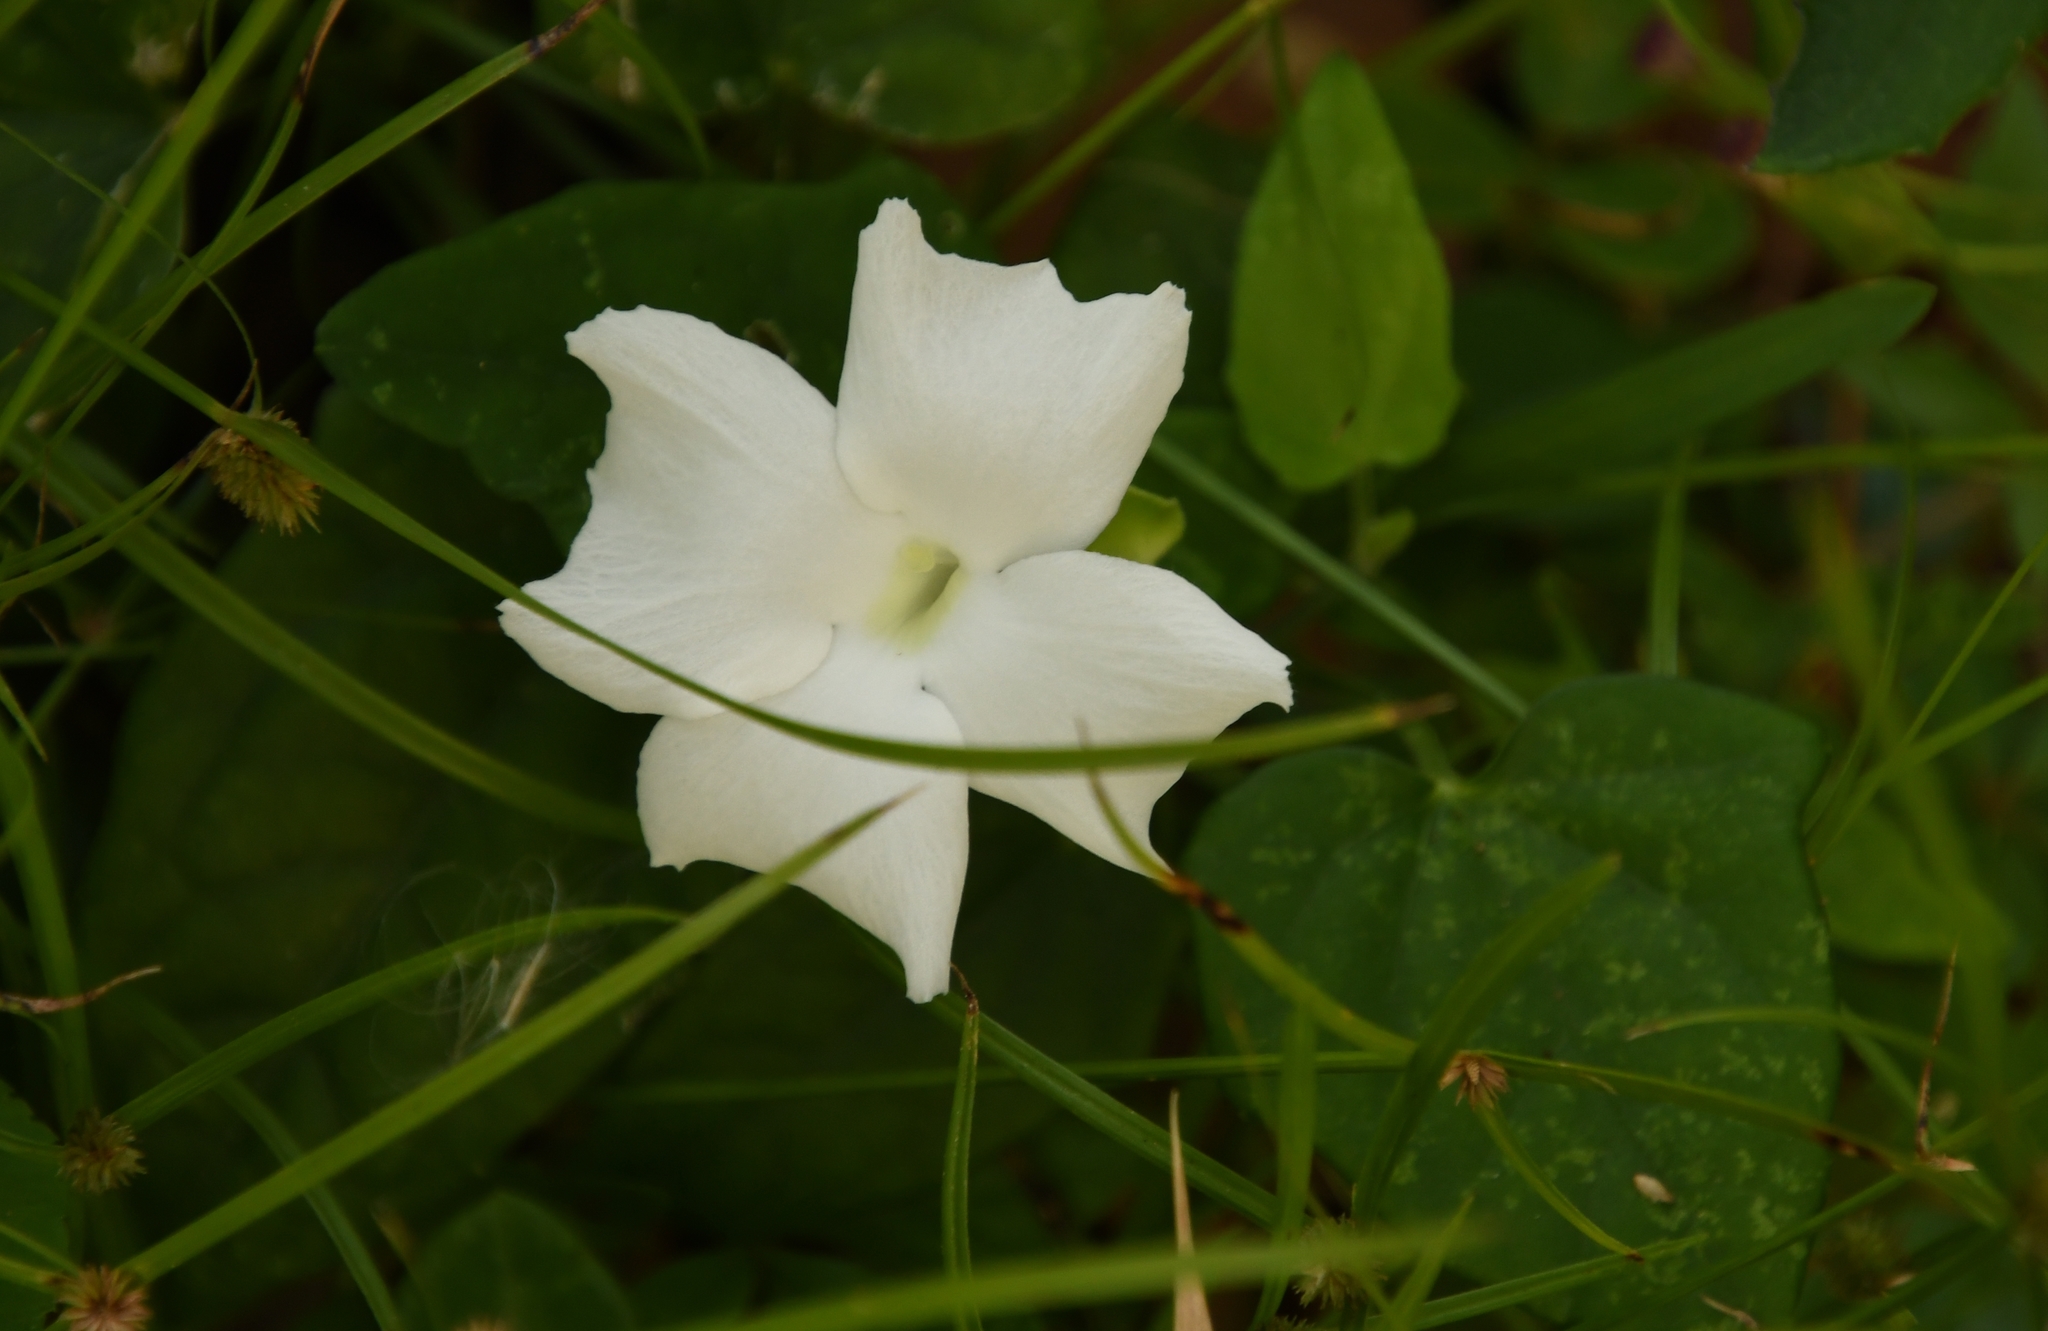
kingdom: Plantae
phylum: Tracheophyta
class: Magnoliopsida
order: Lamiales
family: Acanthaceae
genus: Thunbergia
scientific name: Thunbergia fragrans
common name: Whitelady
